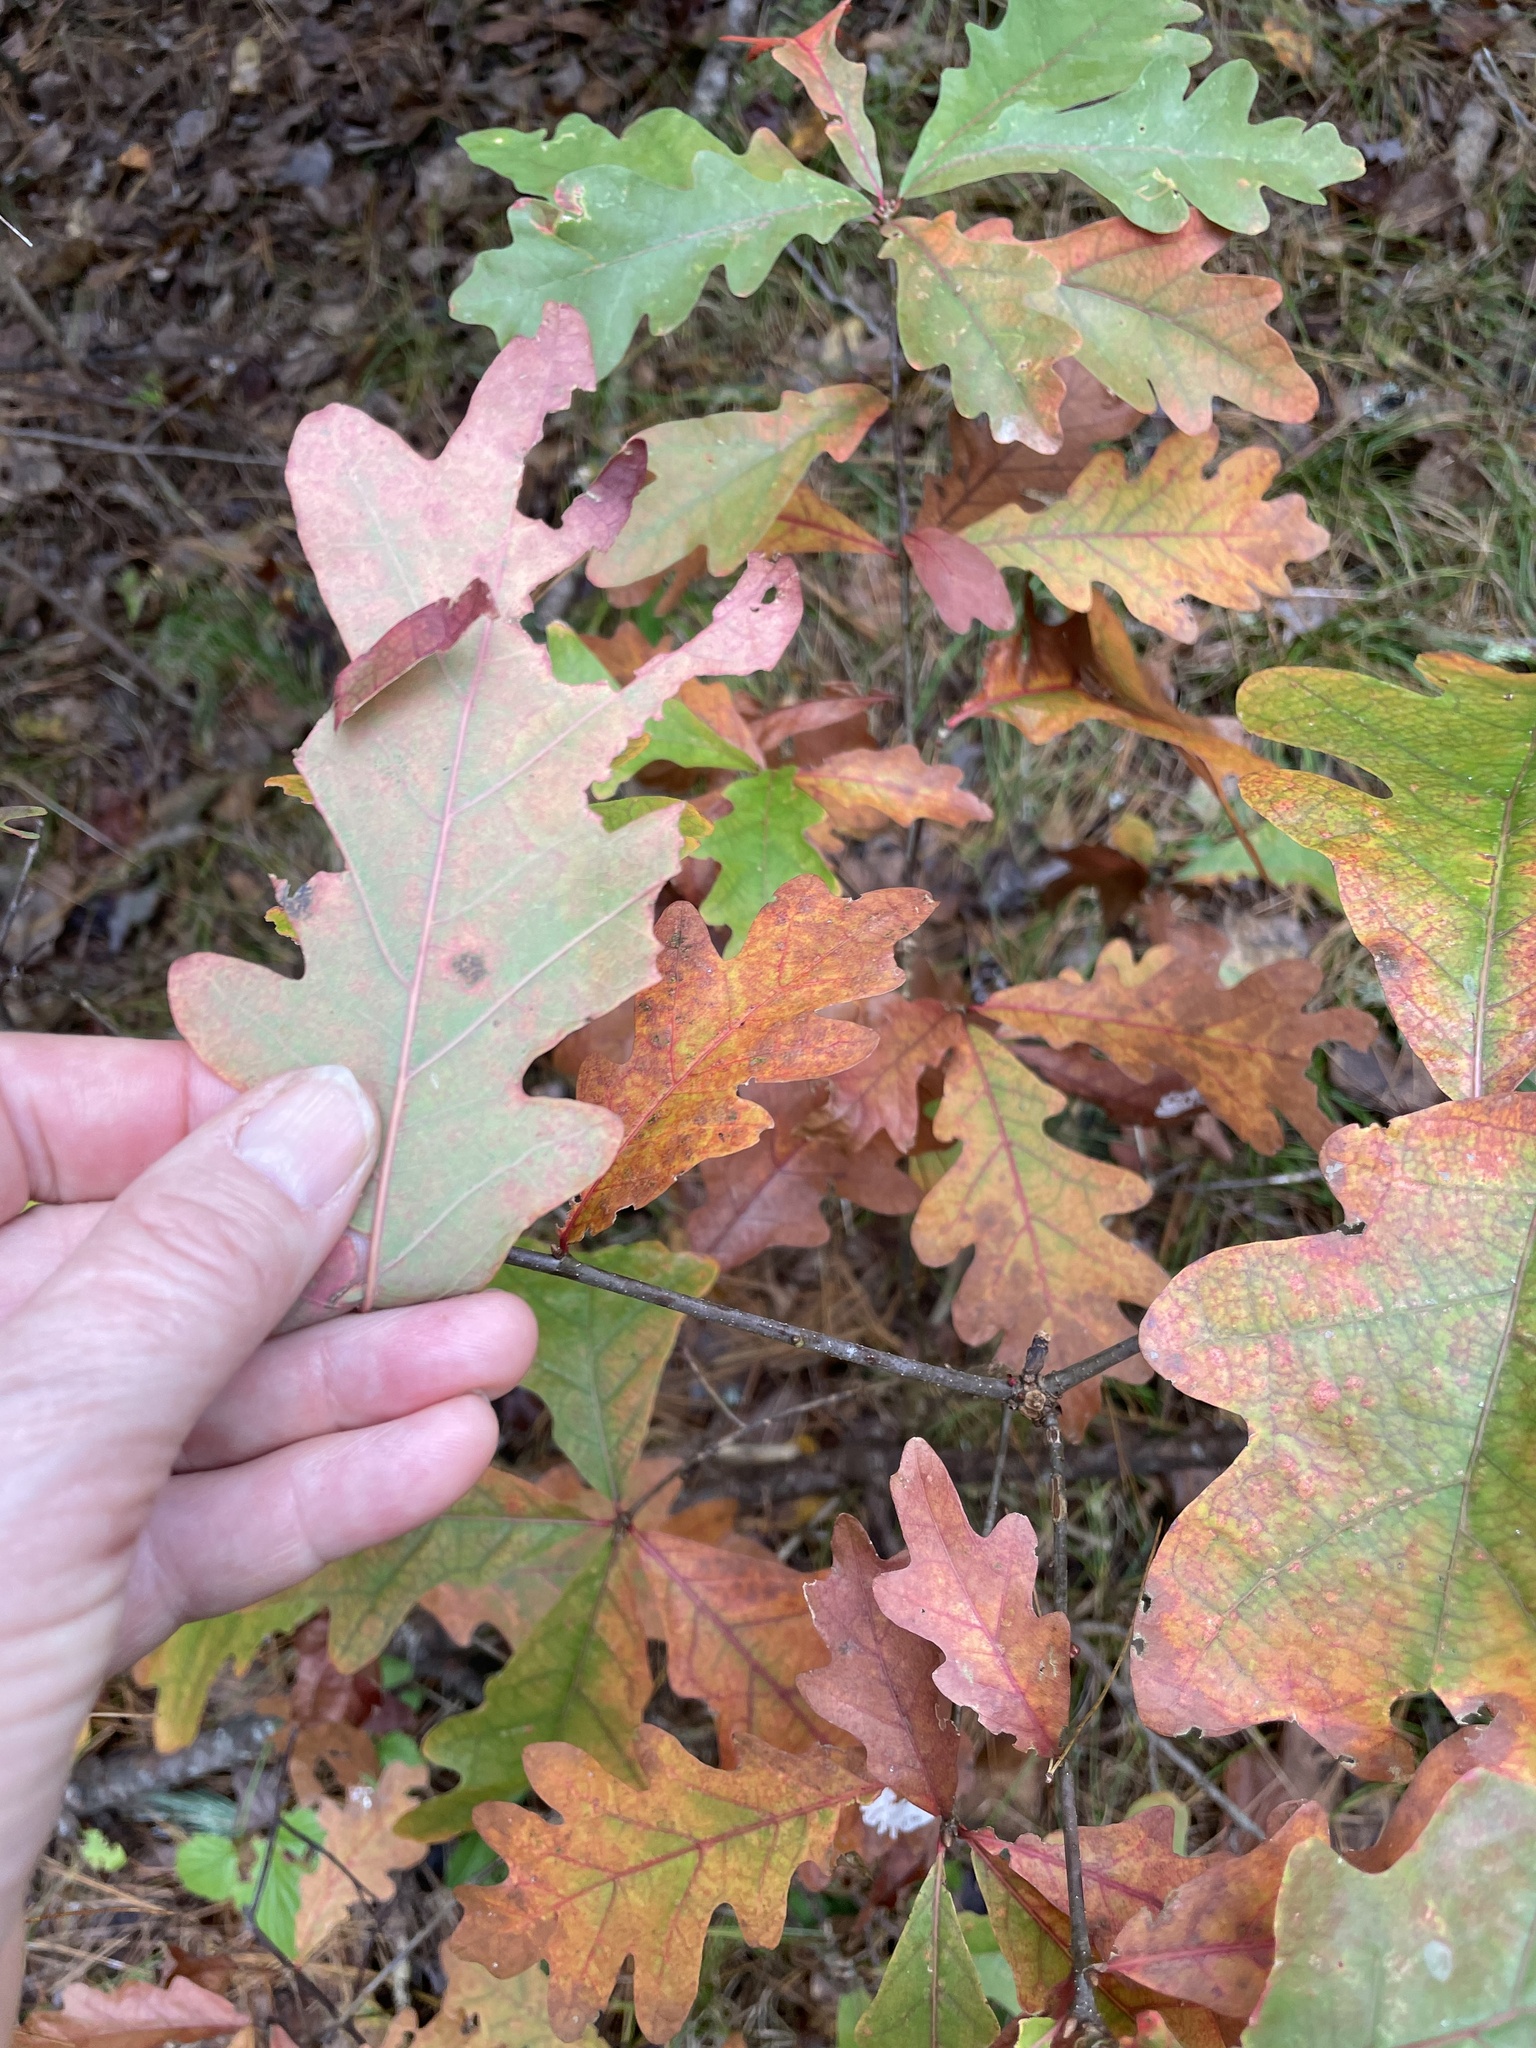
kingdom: Plantae
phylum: Tracheophyta
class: Magnoliopsida
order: Fagales
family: Fagaceae
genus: Quercus
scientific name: Quercus alba
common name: White oak
